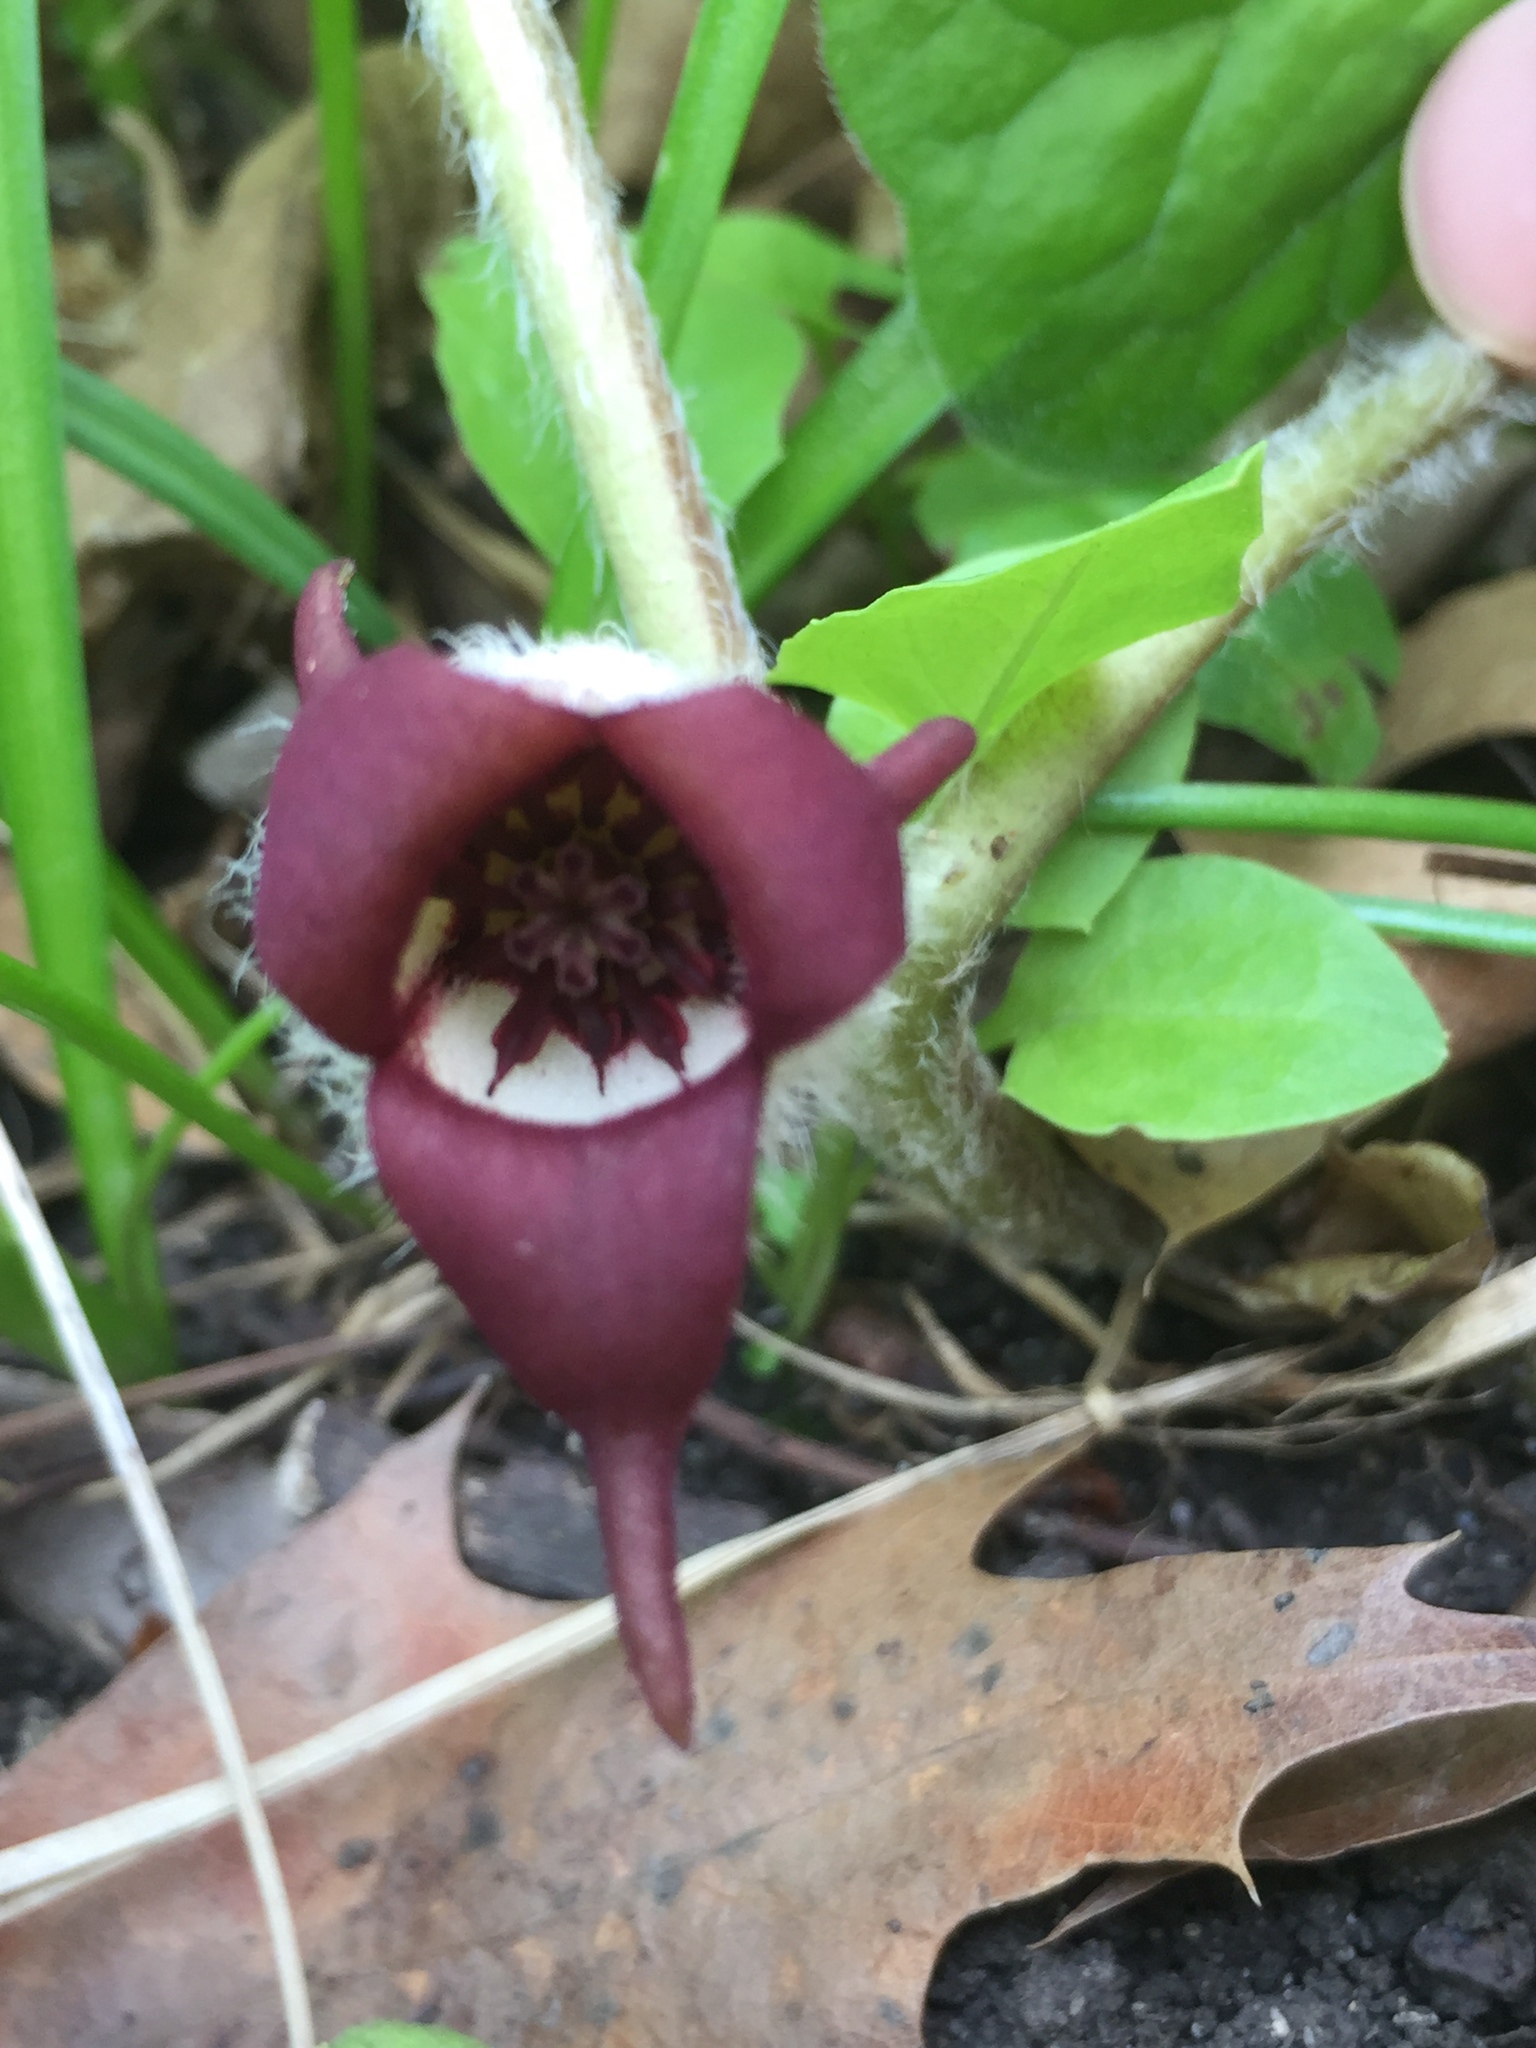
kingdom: Plantae
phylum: Tracheophyta
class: Magnoliopsida
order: Piperales
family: Aristolochiaceae
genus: Asarum
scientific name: Asarum canadense
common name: Wild ginger
